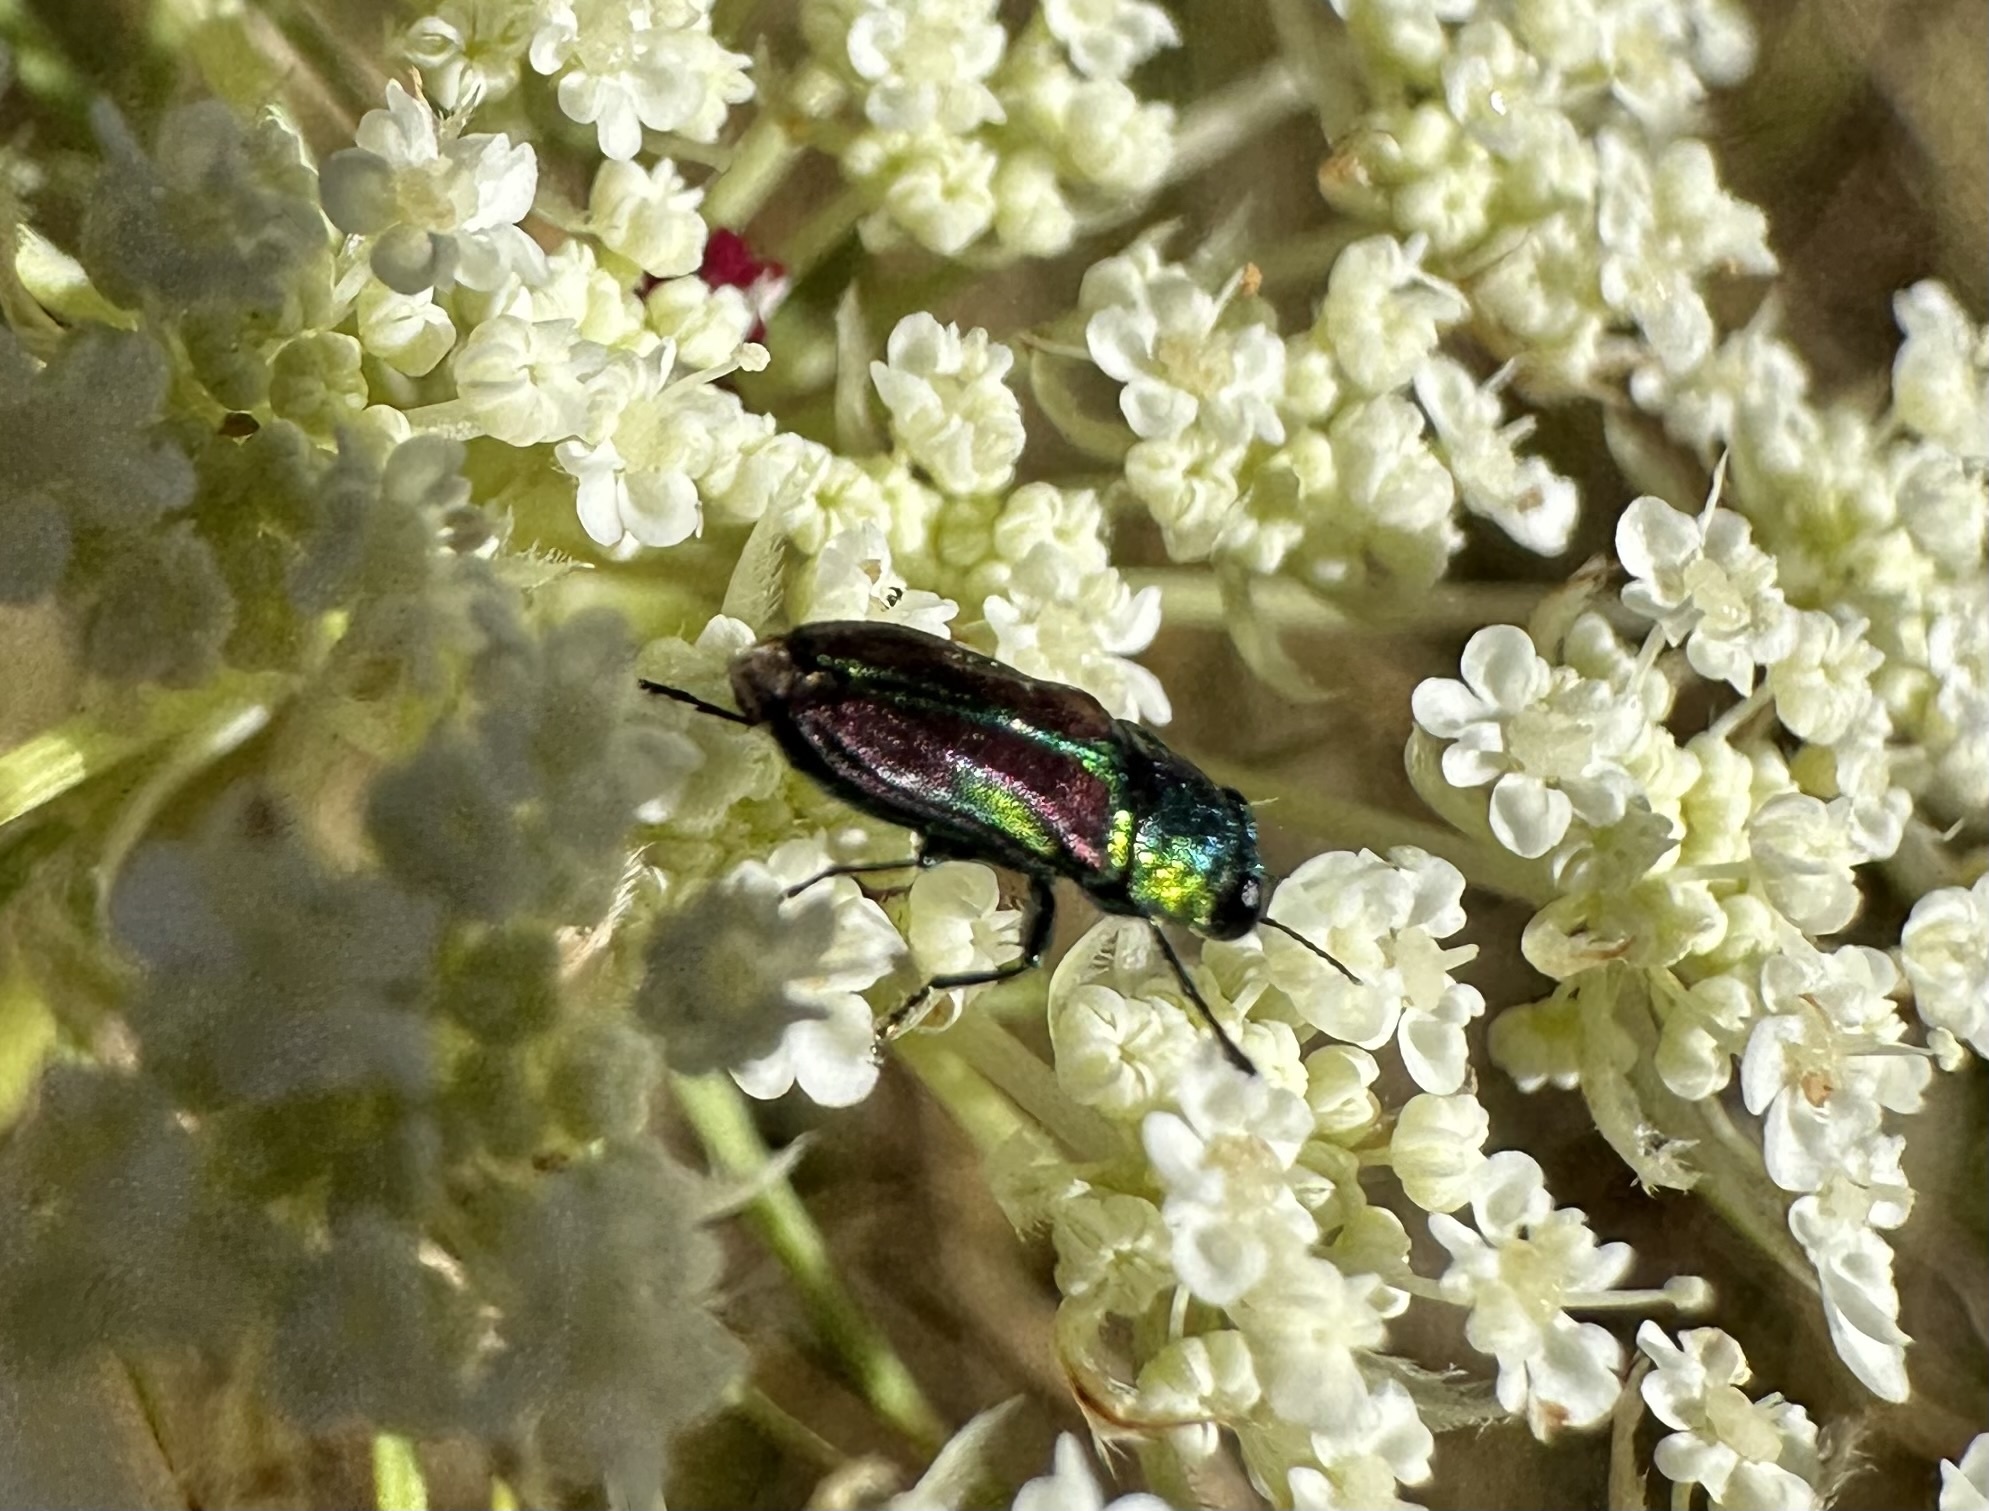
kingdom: Animalia
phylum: Arthropoda
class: Insecta
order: Coleoptera
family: Buprestidae
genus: Bilyaxia
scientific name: Bilyaxia concinna
